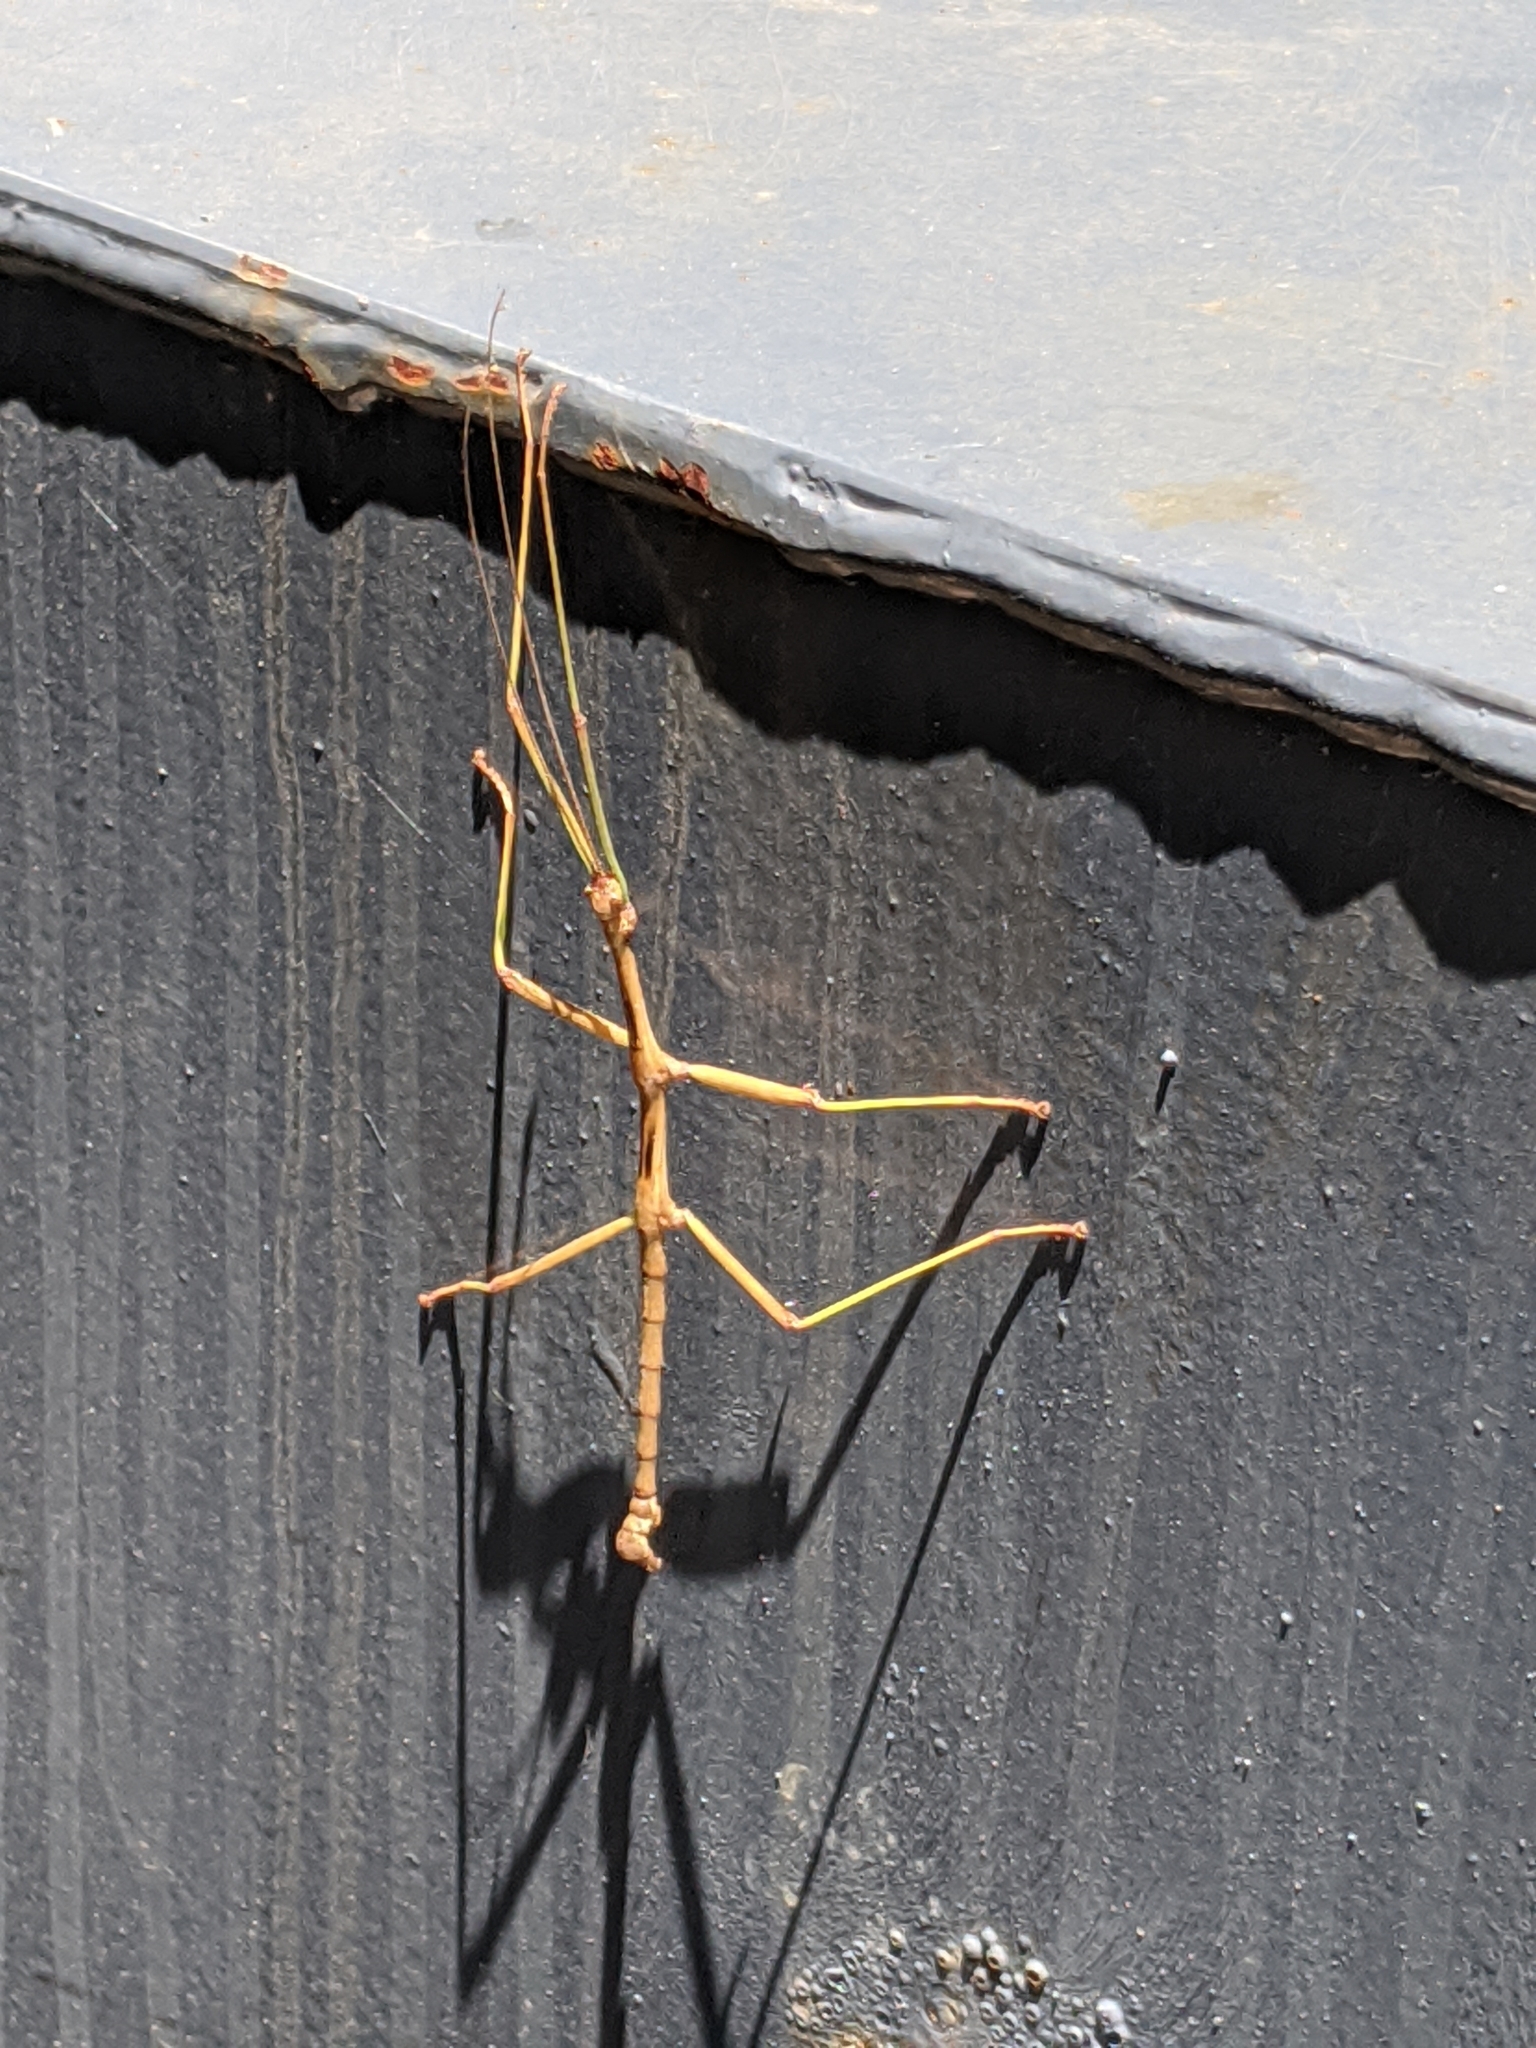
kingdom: Animalia
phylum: Arthropoda
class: Insecta
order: Phasmida
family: Diapheromeridae
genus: Diapheromera
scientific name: Diapheromera carolina
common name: Carolina walkingstick
